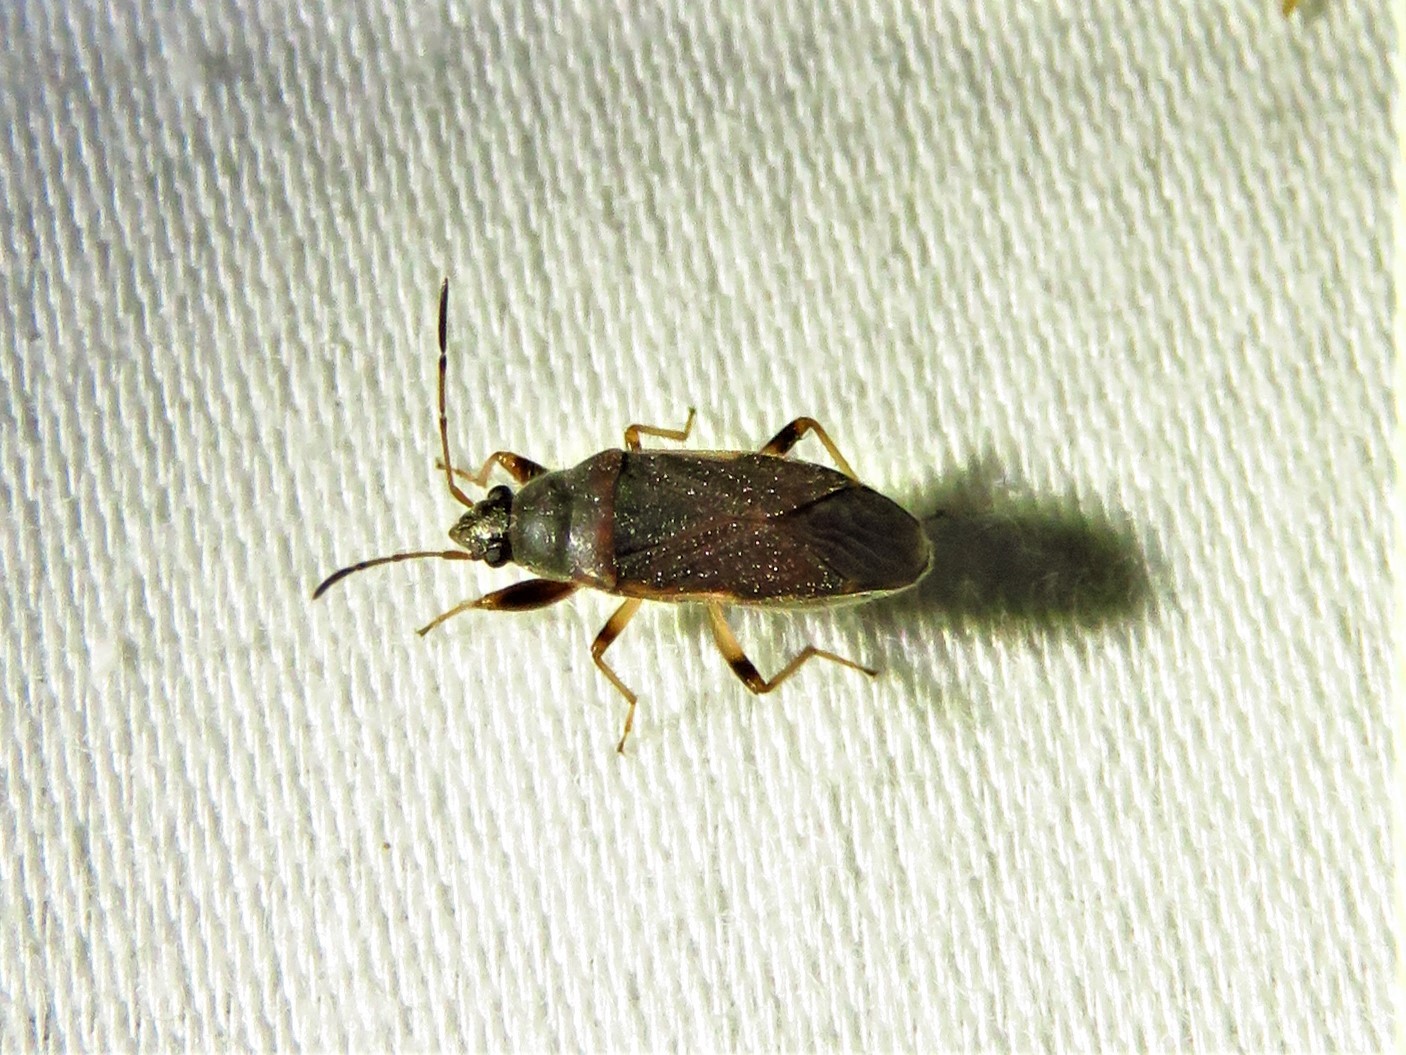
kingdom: Animalia
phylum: Arthropoda
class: Insecta
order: Hemiptera
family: Rhyparochromidae
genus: Perigenes
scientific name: Perigenes similis
